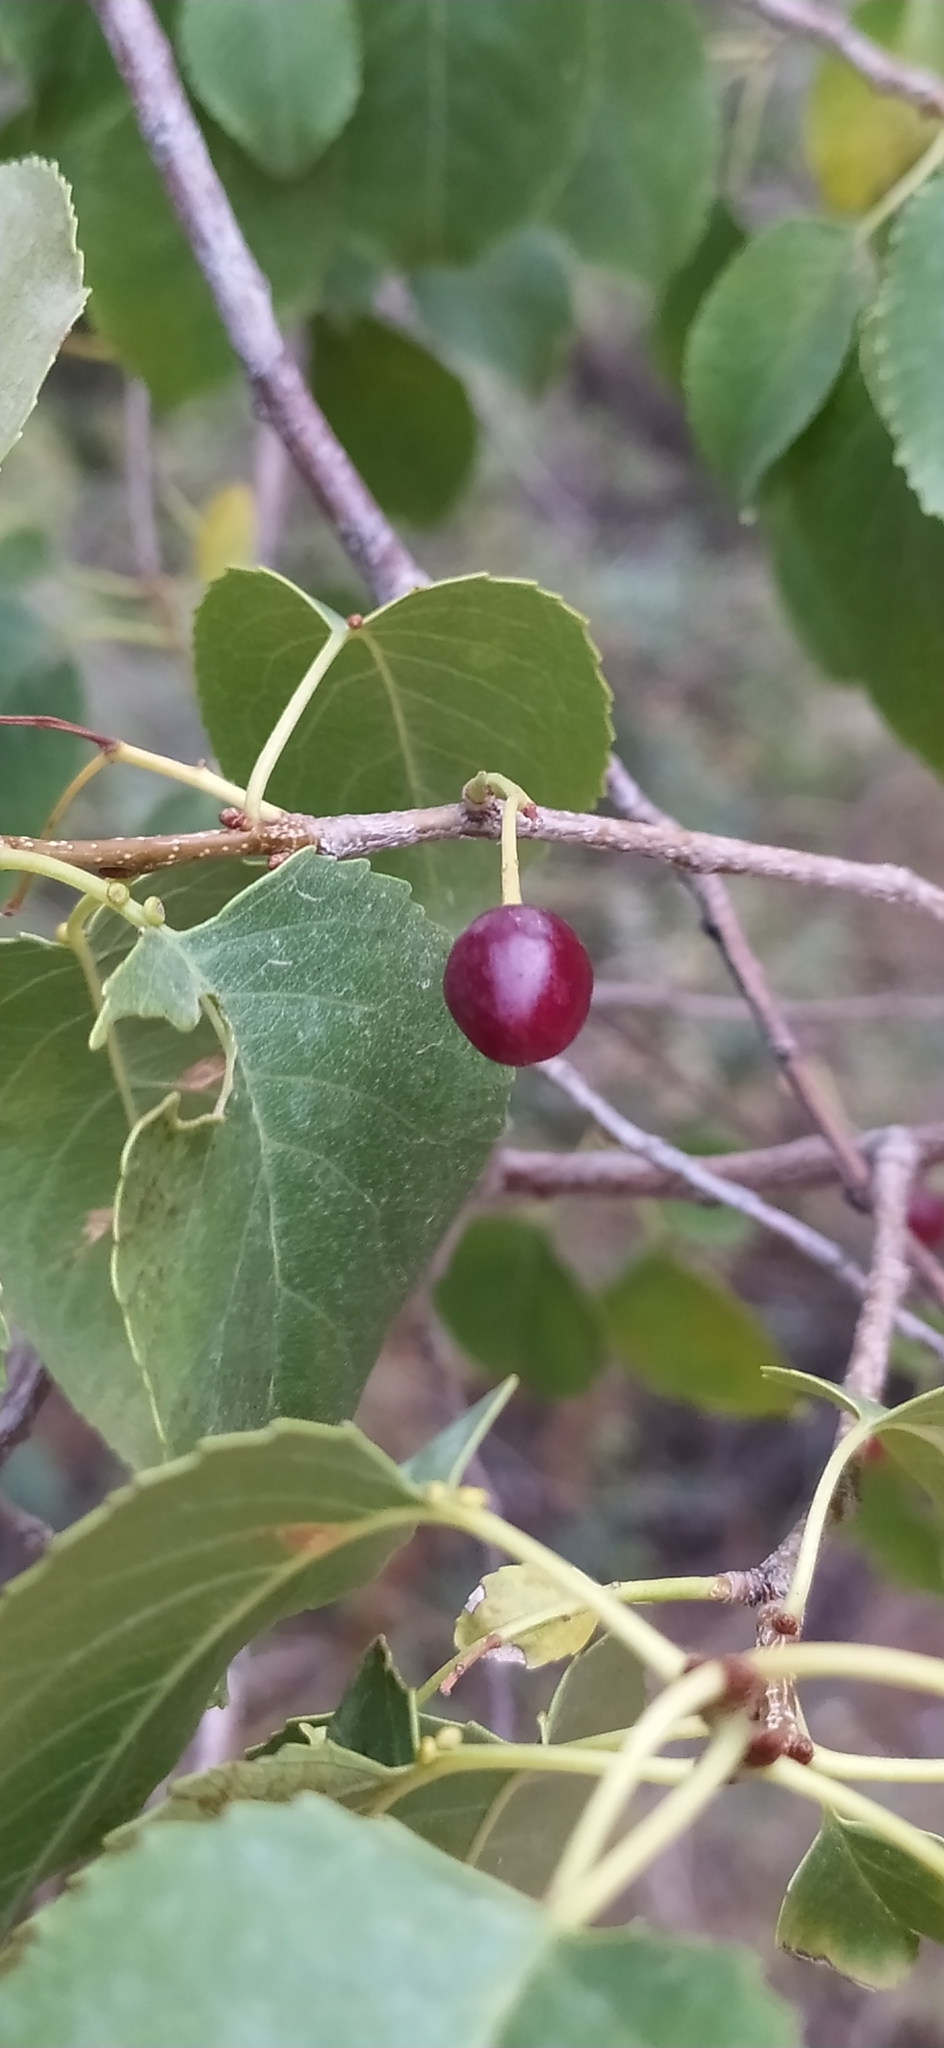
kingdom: Plantae
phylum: Tracheophyta
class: Magnoliopsida
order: Rosales
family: Rosaceae
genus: Prunus
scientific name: Prunus mahaleb
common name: Mahaleb cherry
